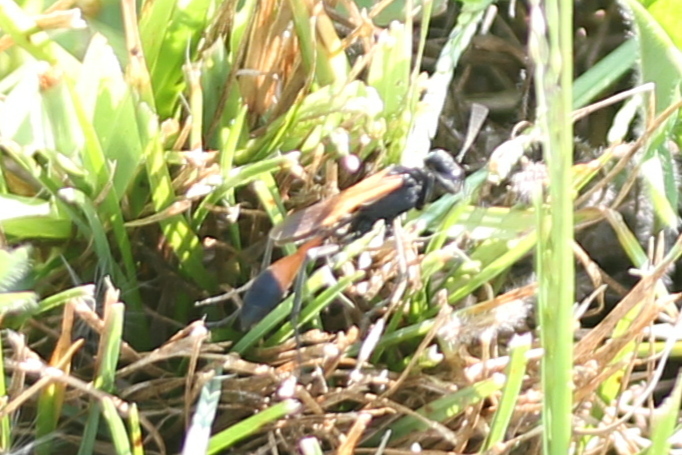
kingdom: Animalia
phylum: Arthropoda
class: Insecta
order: Hymenoptera
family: Sphecidae
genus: Ammophila
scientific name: Ammophila pictipennis
